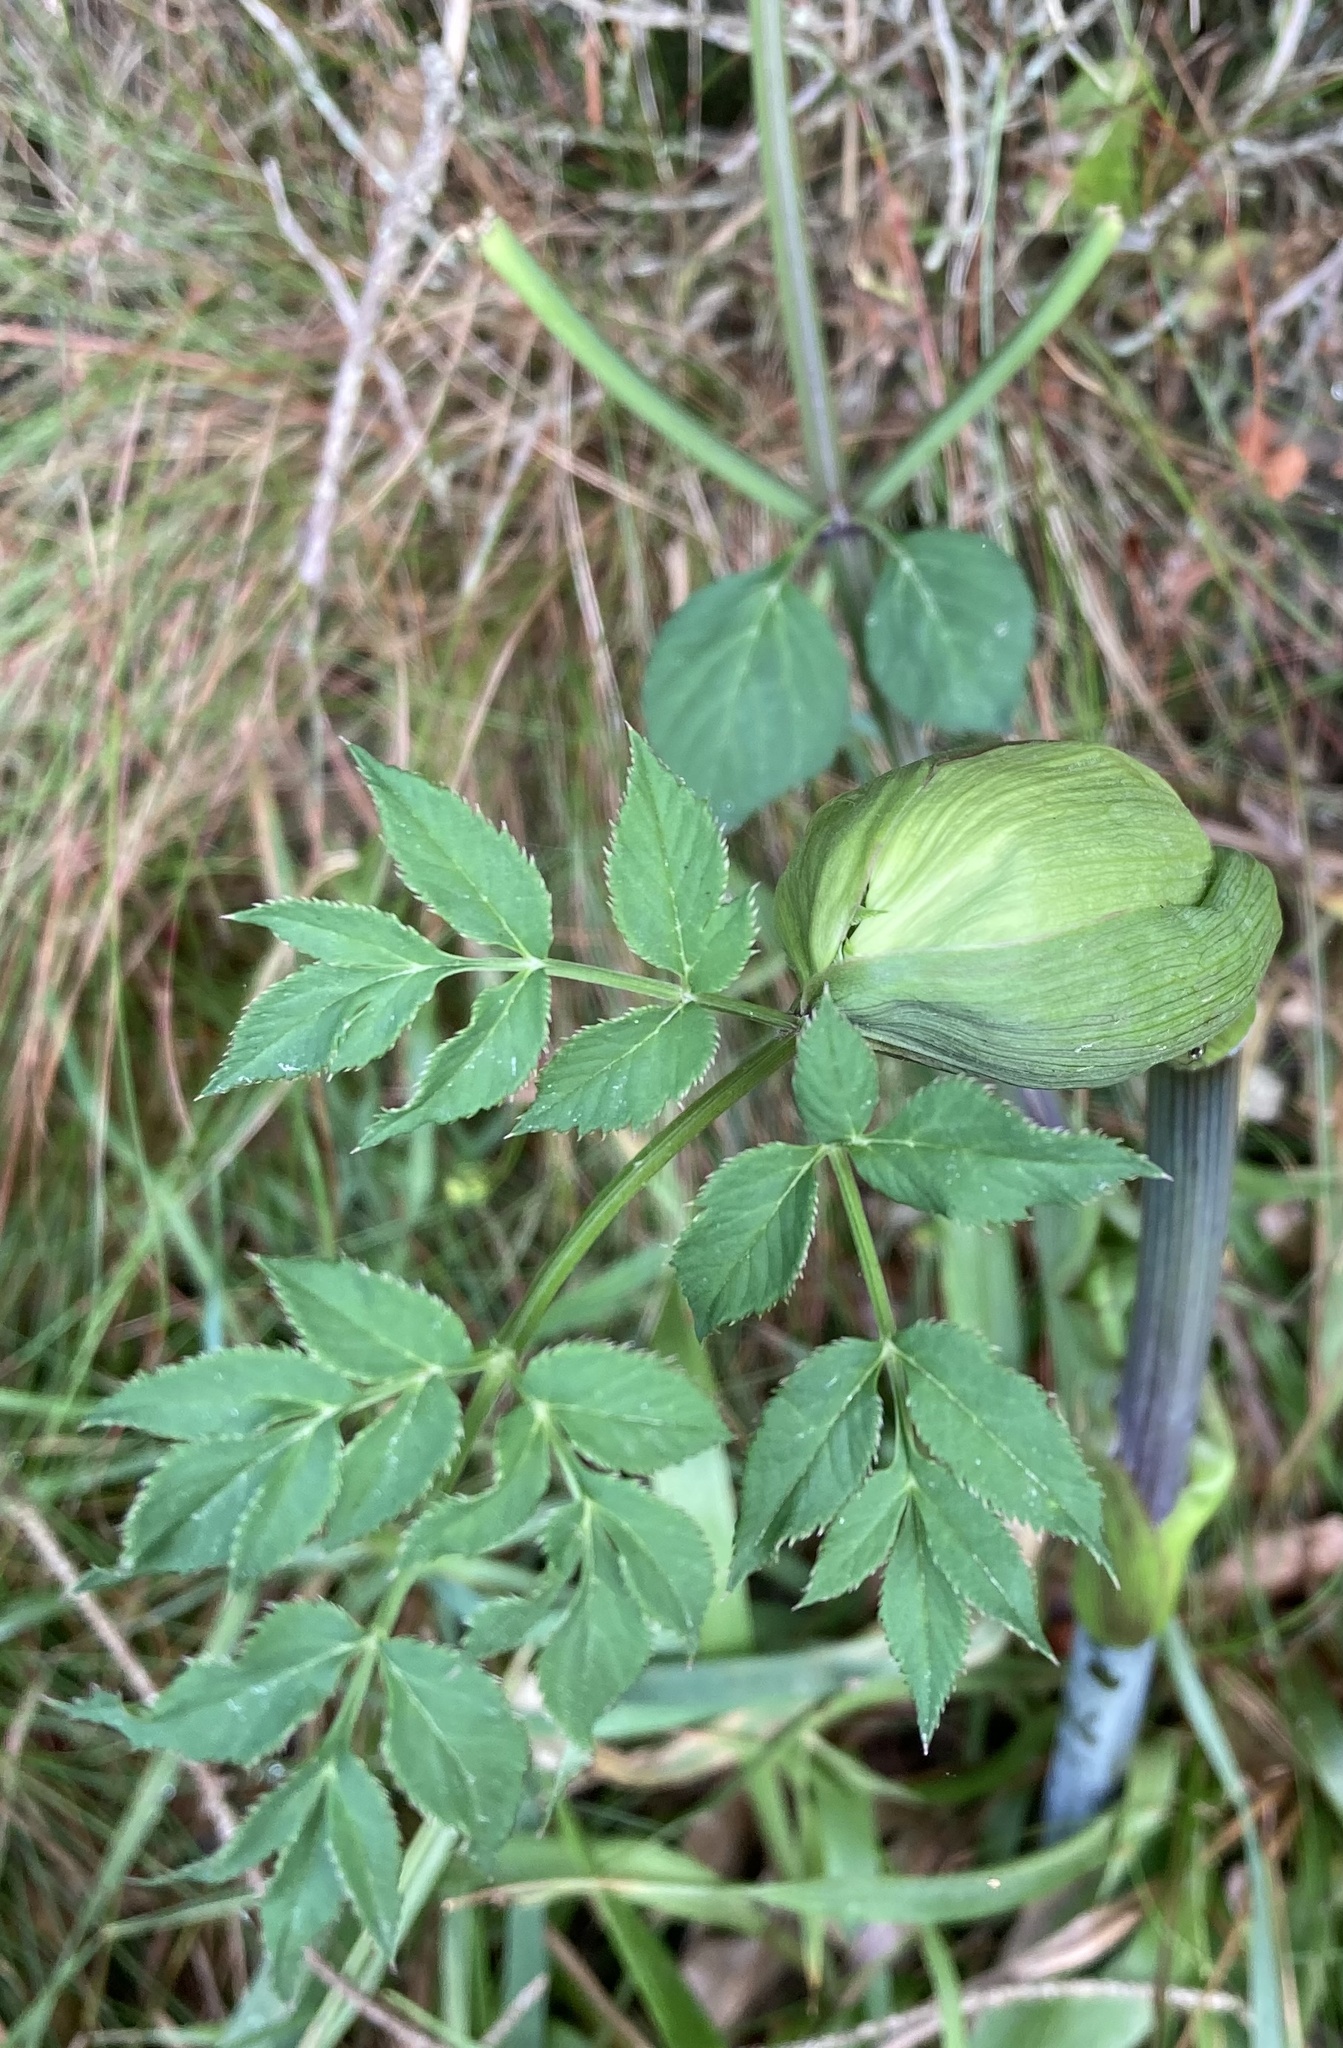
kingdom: Plantae
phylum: Tracheophyta
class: Magnoliopsida
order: Apiales
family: Apiaceae
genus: Angelica
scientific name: Angelica sylvestris
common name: Wild angelica
